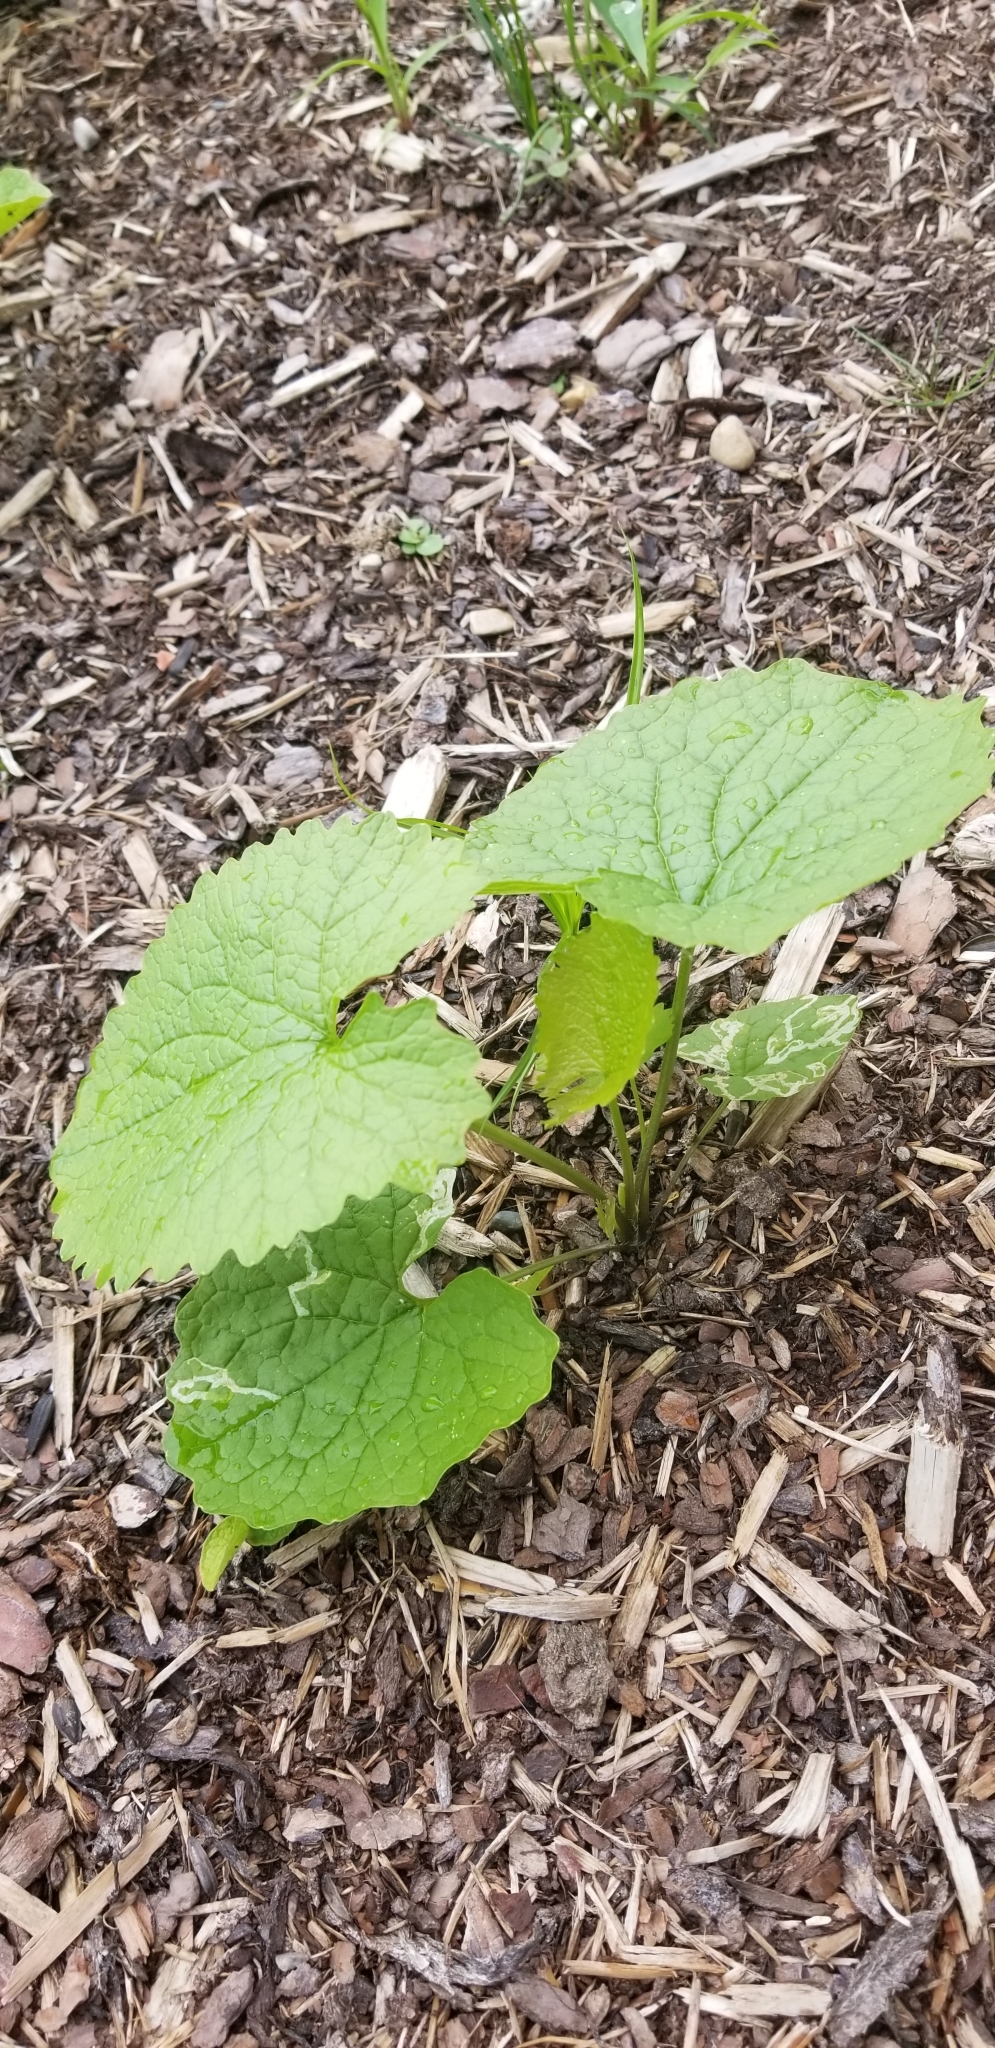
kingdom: Plantae
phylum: Tracheophyta
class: Magnoliopsida
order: Brassicales
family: Brassicaceae
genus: Alliaria
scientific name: Alliaria petiolata
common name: Garlic mustard
